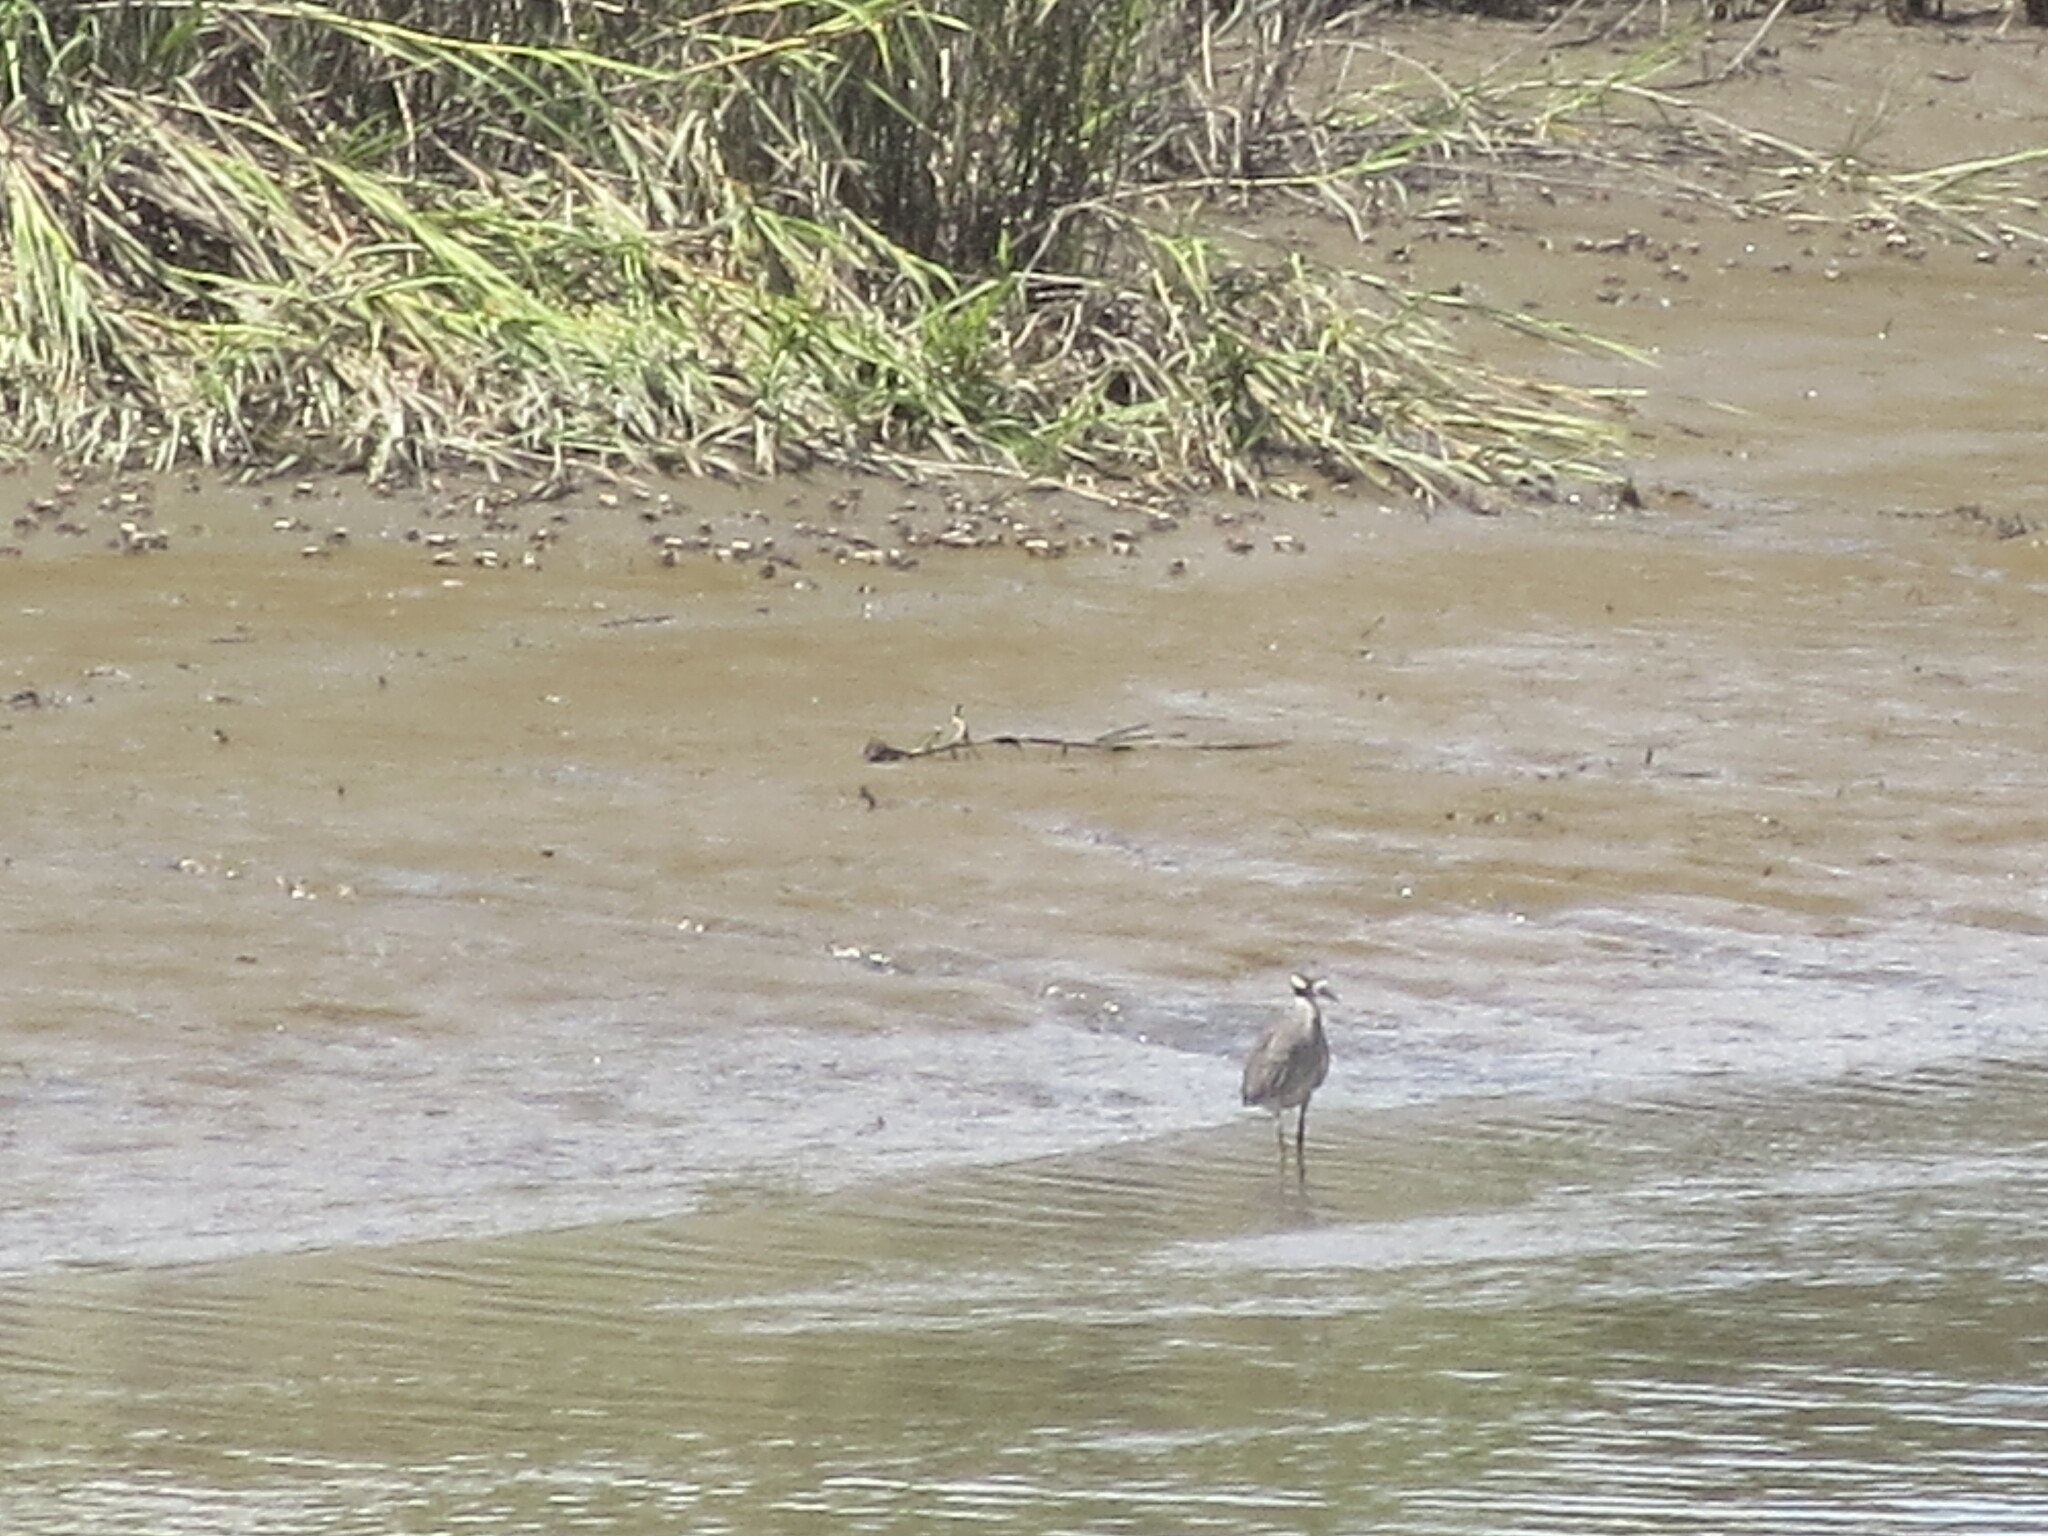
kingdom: Animalia
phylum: Chordata
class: Aves
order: Pelecaniformes
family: Ardeidae
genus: Nyctanassa
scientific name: Nyctanassa violacea
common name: Yellow-crowned night heron
